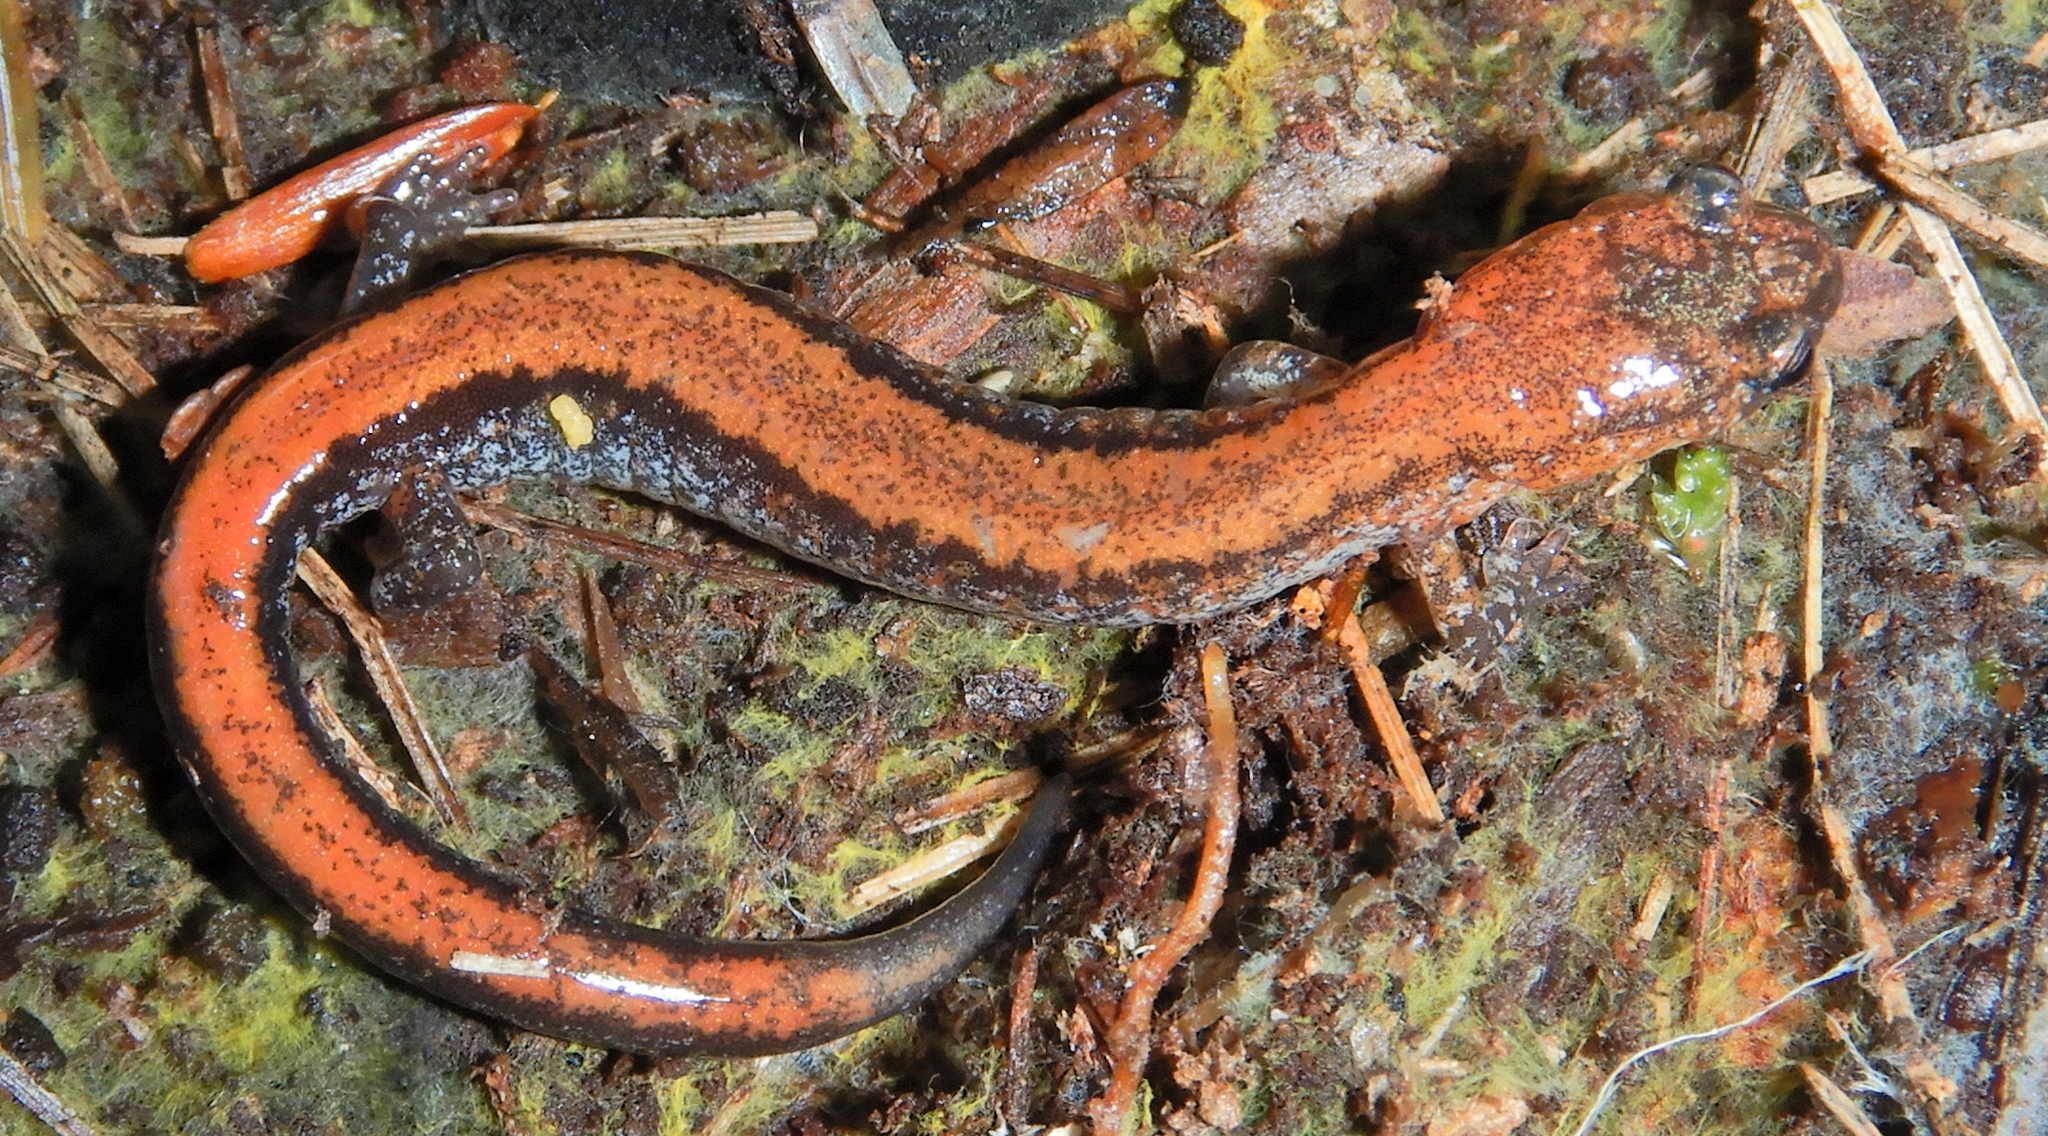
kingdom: Animalia
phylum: Chordata
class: Amphibia
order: Caudata
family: Plethodontidae
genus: Plethodon
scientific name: Plethodon cinereus
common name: Redback salamander
